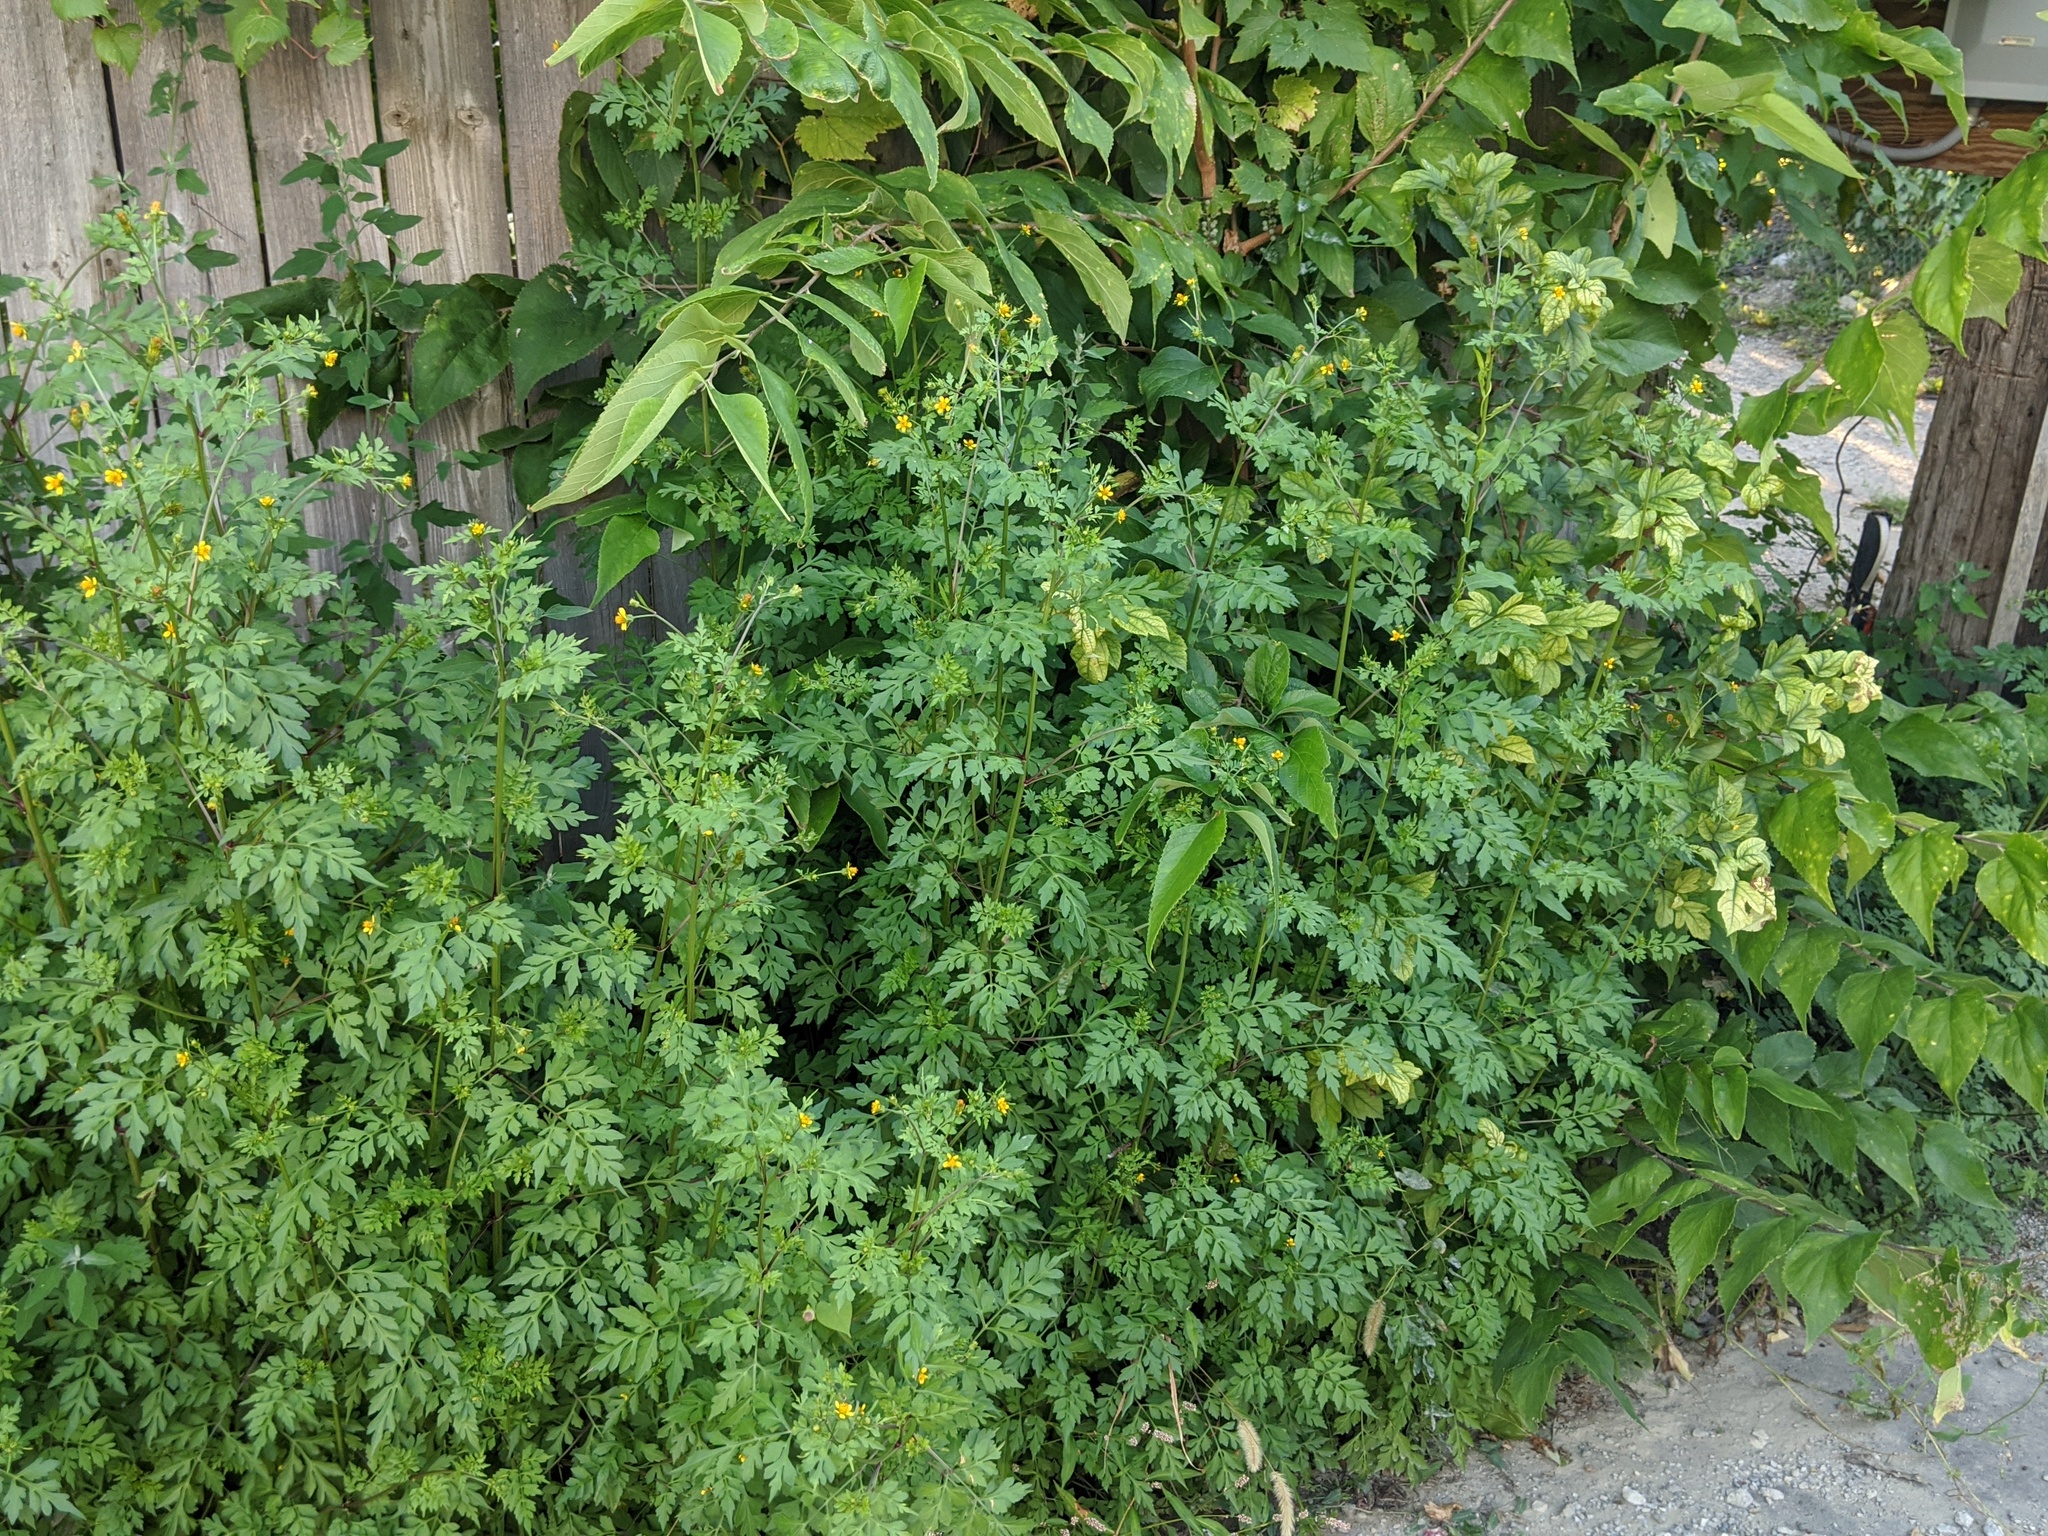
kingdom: Plantae
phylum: Tracheophyta
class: Magnoliopsida
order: Asterales
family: Asteraceae
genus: Bidens
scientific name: Bidens bipinnata
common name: Spanish-needles
